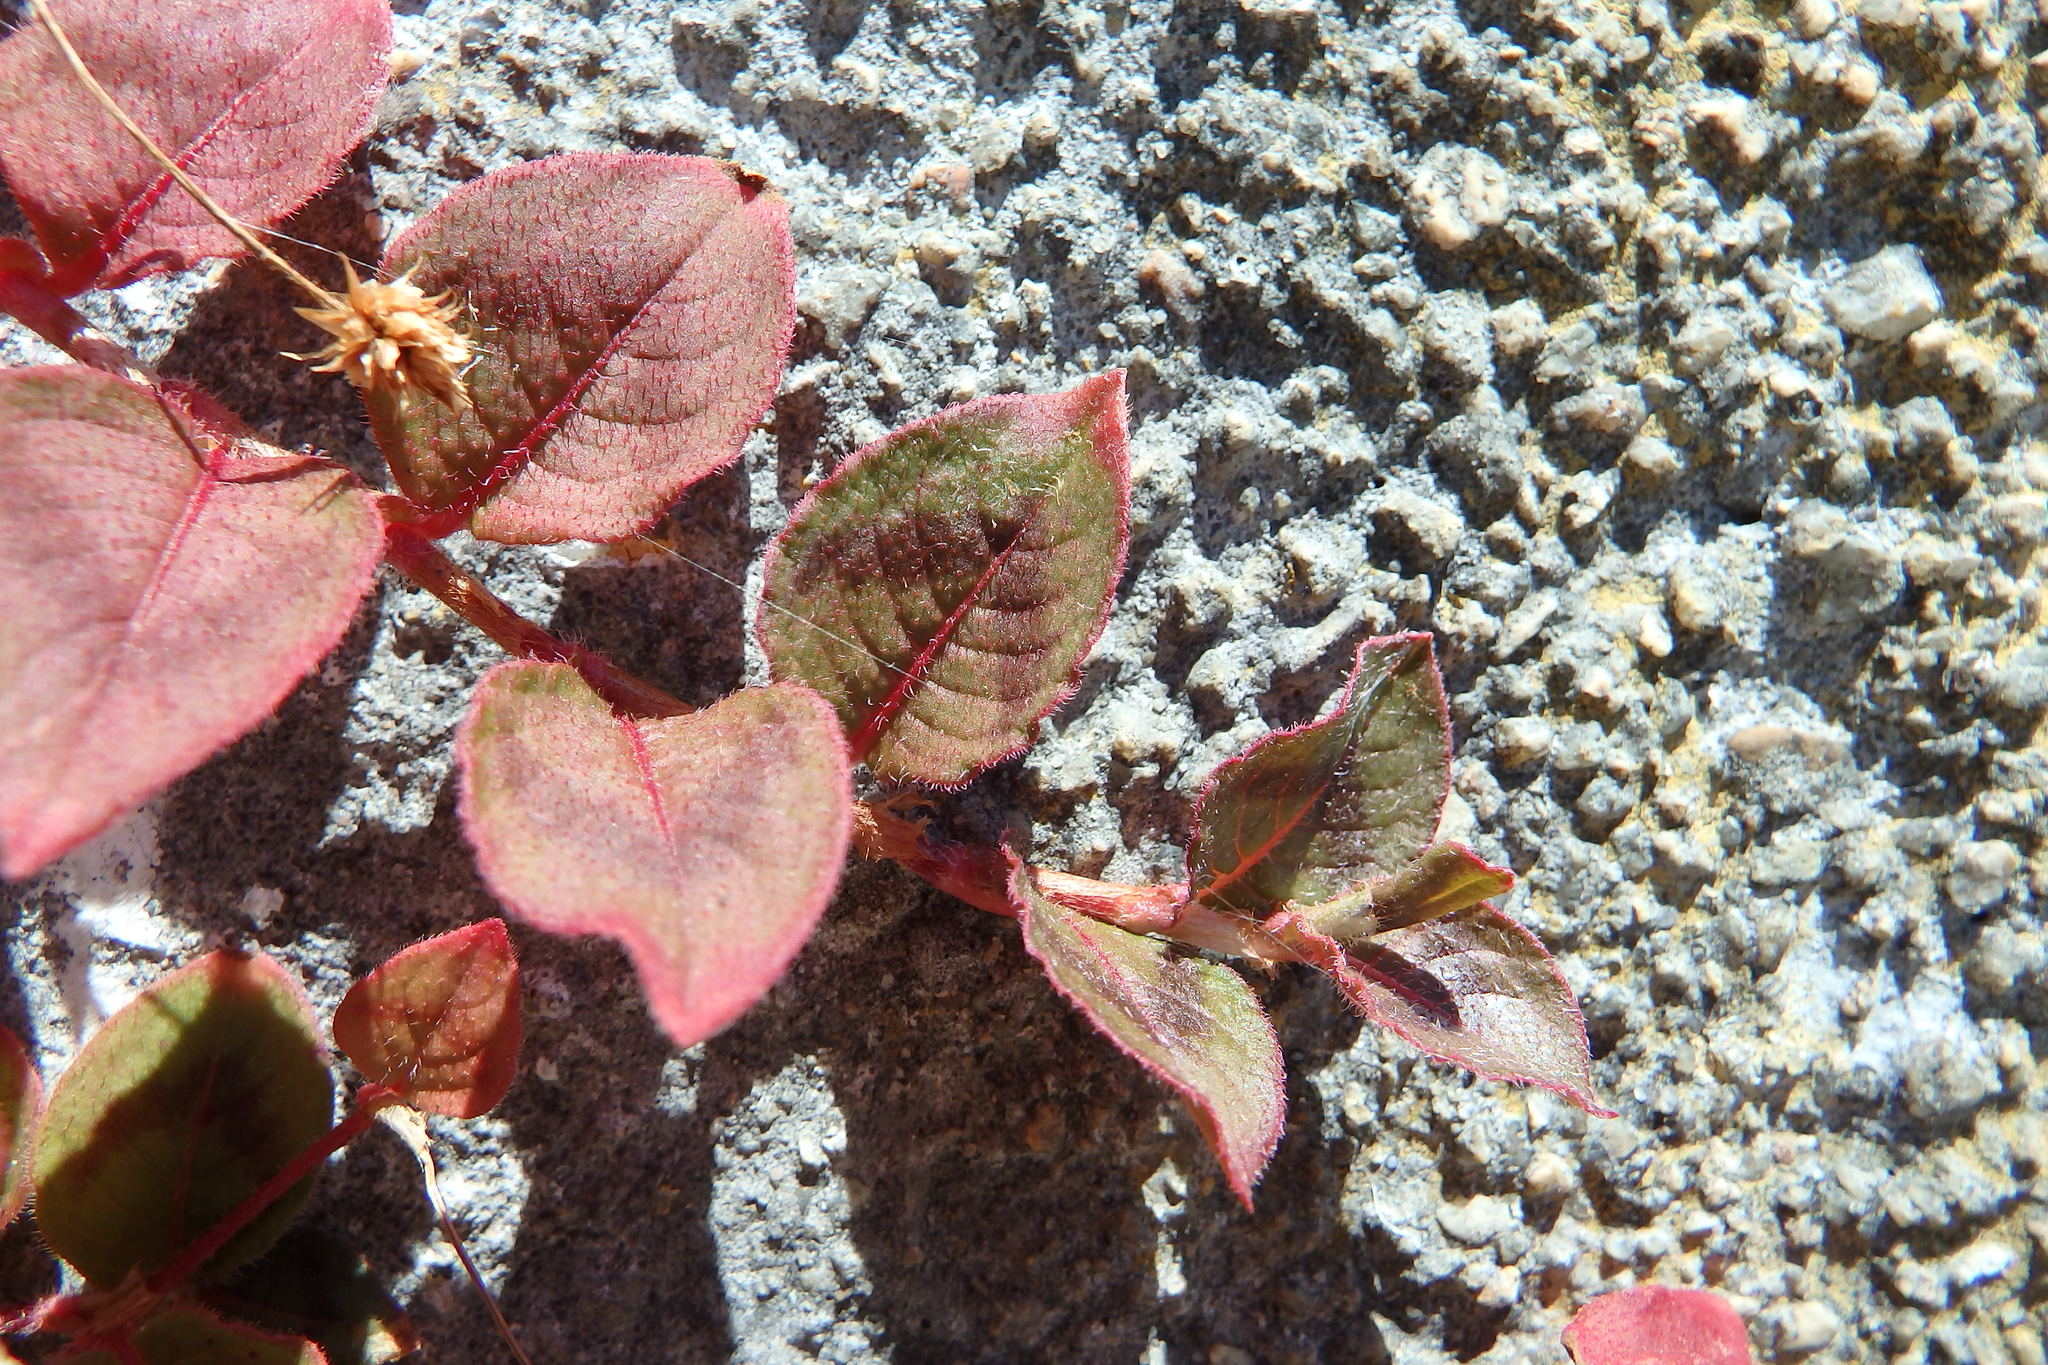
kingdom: Plantae
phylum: Tracheophyta
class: Magnoliopsida
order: Caryophyllales
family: Polygonaceae
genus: Persicaria
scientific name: Persicaria capitata
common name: Pinkhead smartweed
